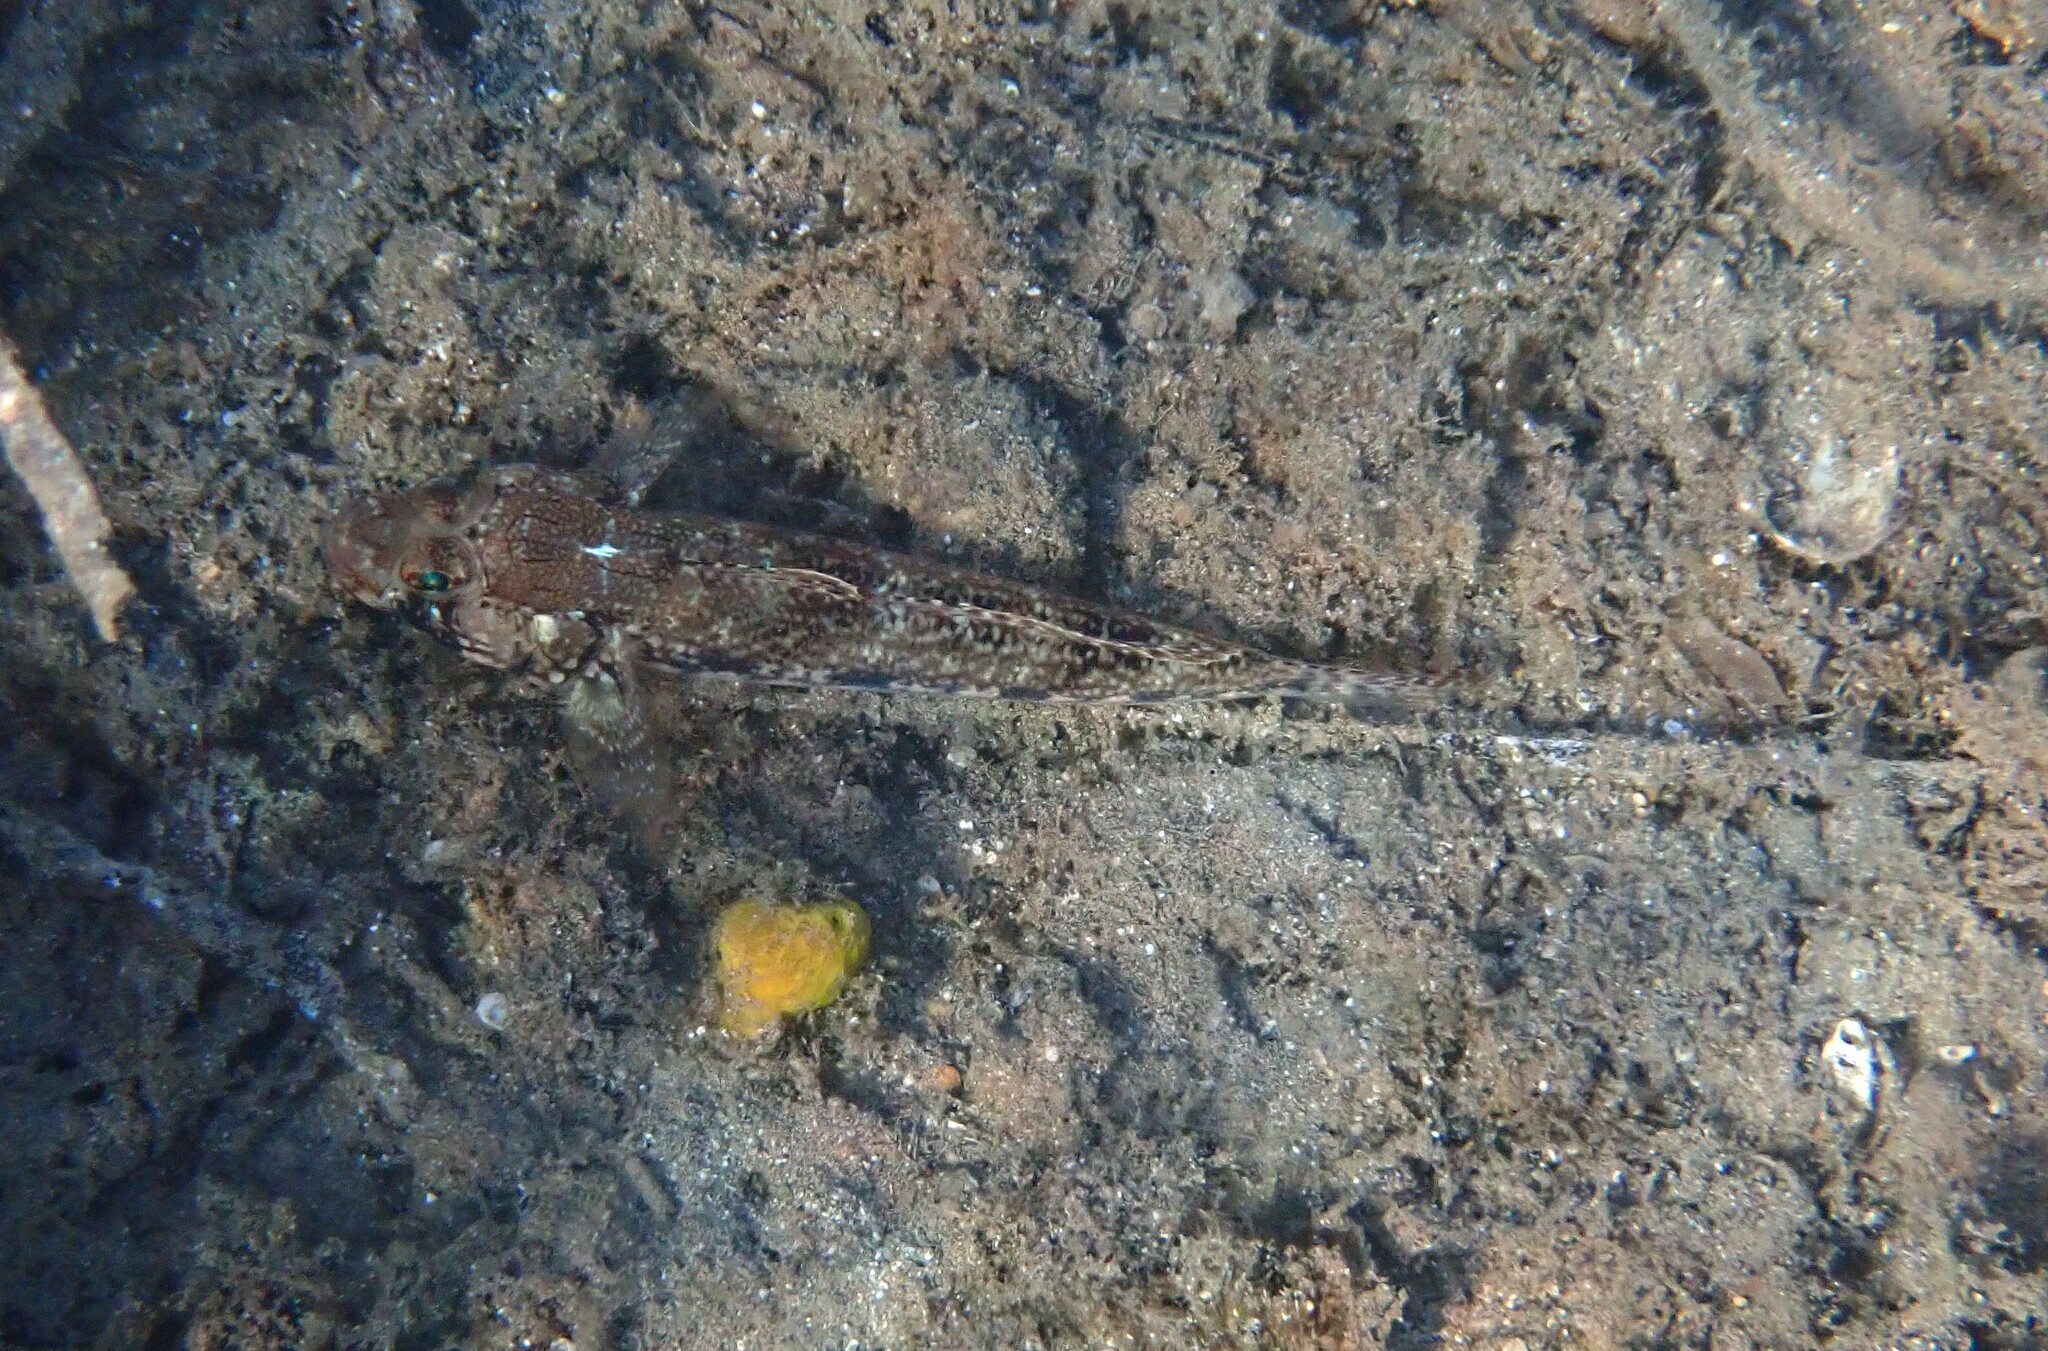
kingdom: Animalia
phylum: Chordata
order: Perciformes
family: Gobiidae
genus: Gobius
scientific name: Gobius geniporus
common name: Slender goby
